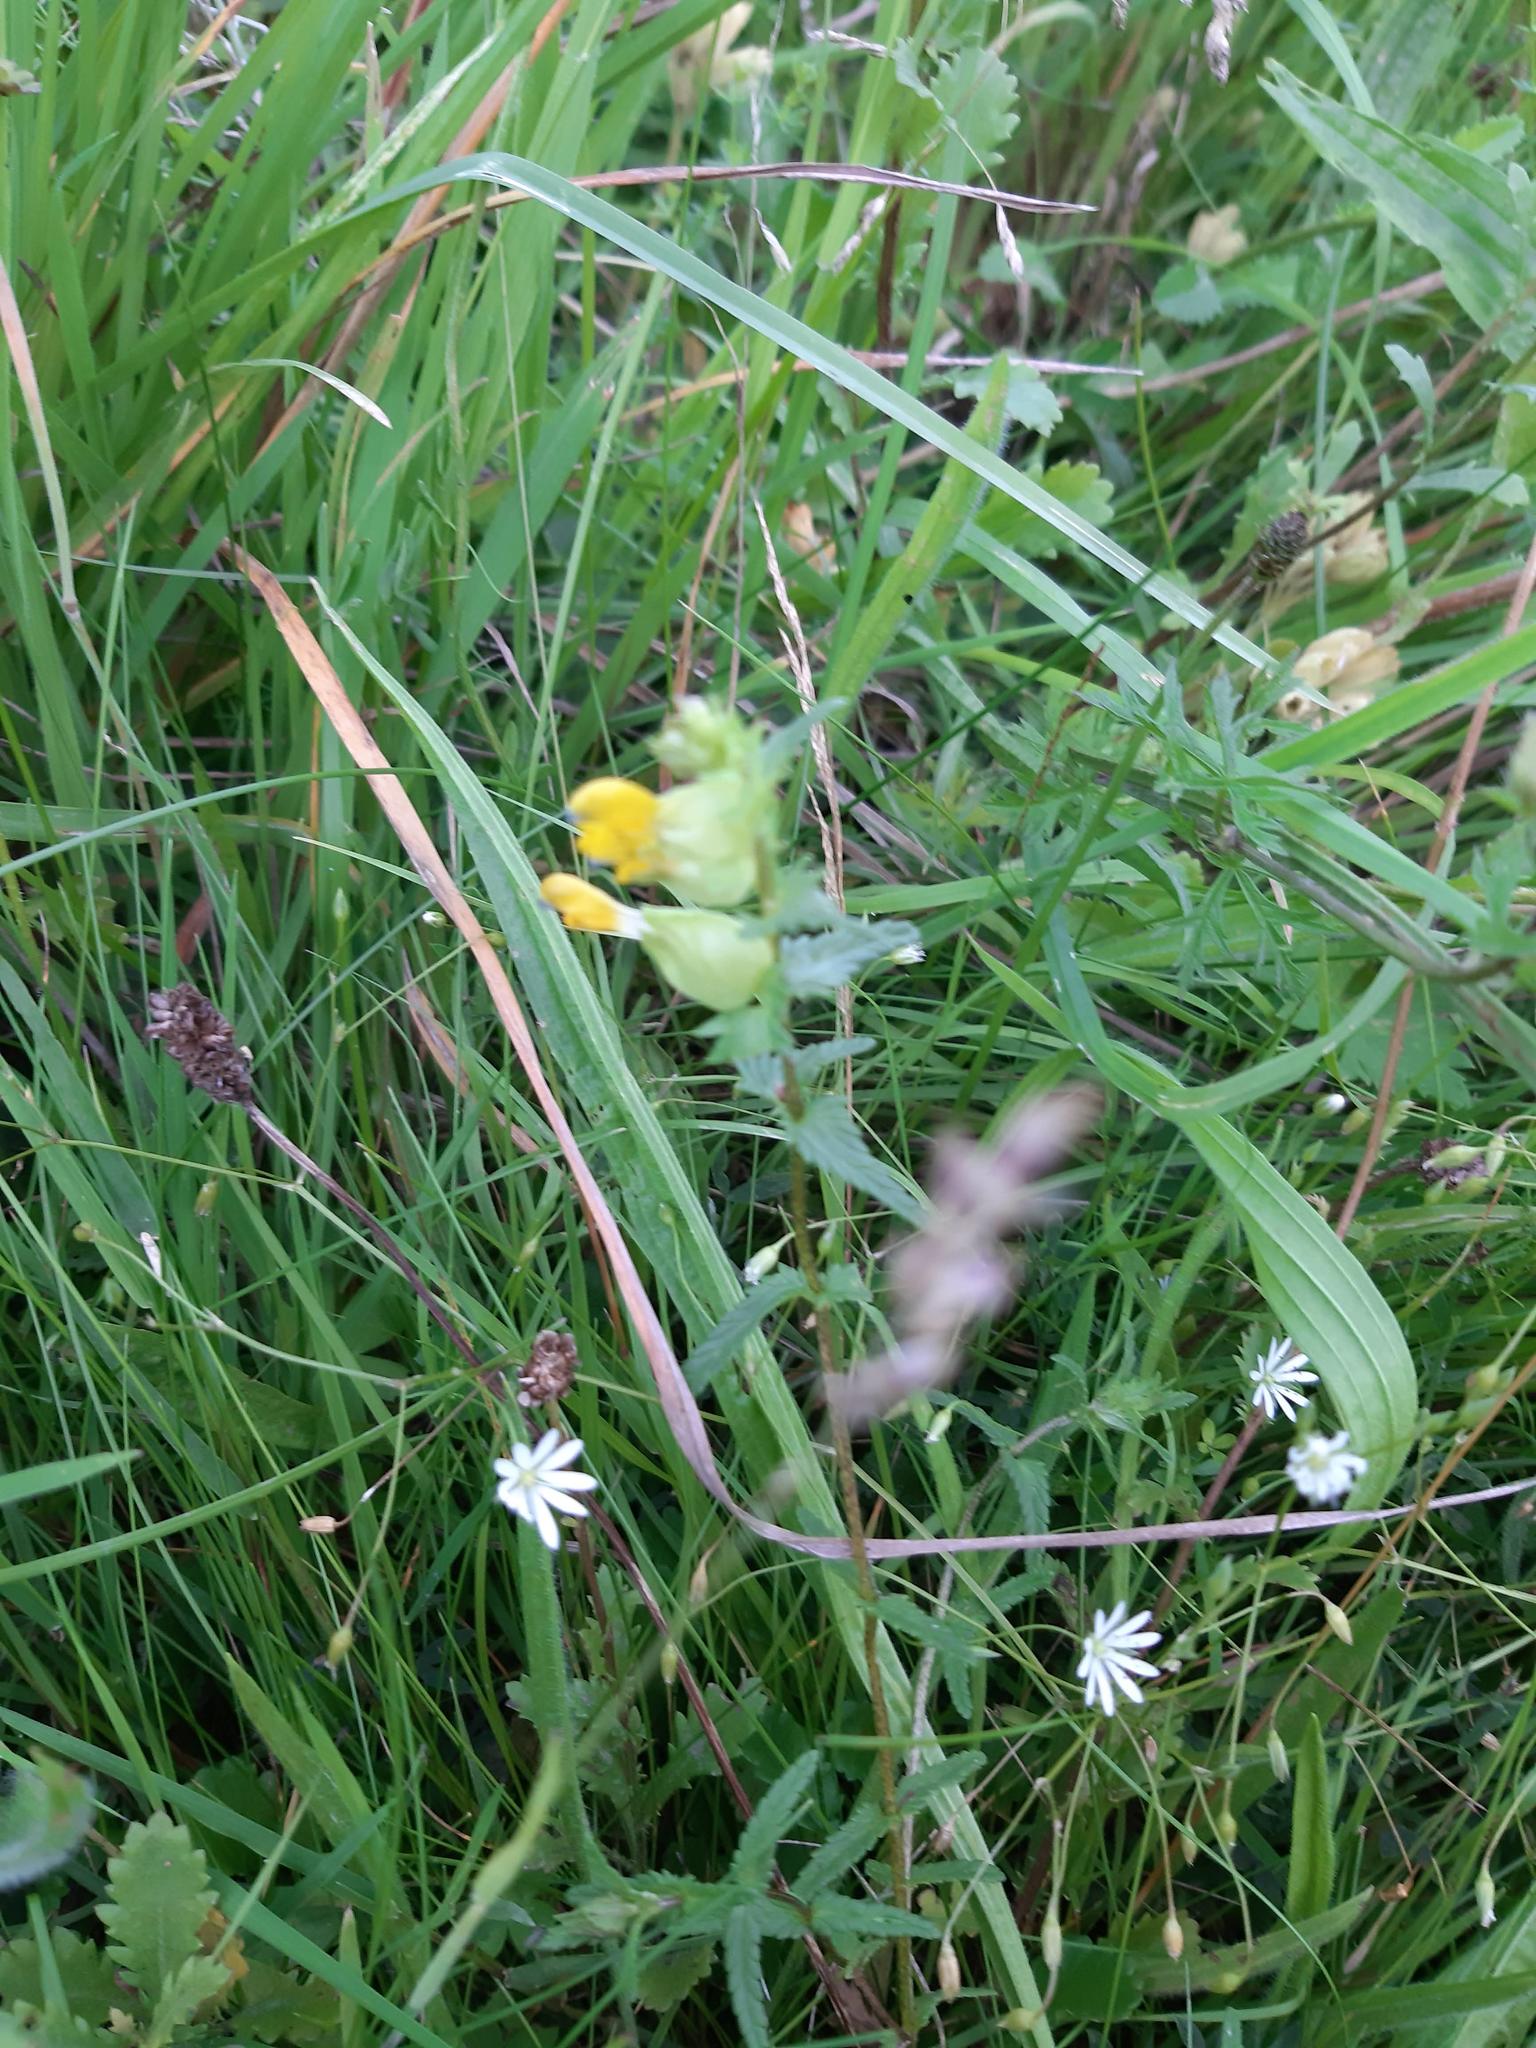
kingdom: Plantae
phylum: Tracheophyta
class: Magnoliopsida
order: Lamiales
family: Orobanchaceae
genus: Rhinanthus
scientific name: Rhinanthus minor
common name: Yellow-rattle
